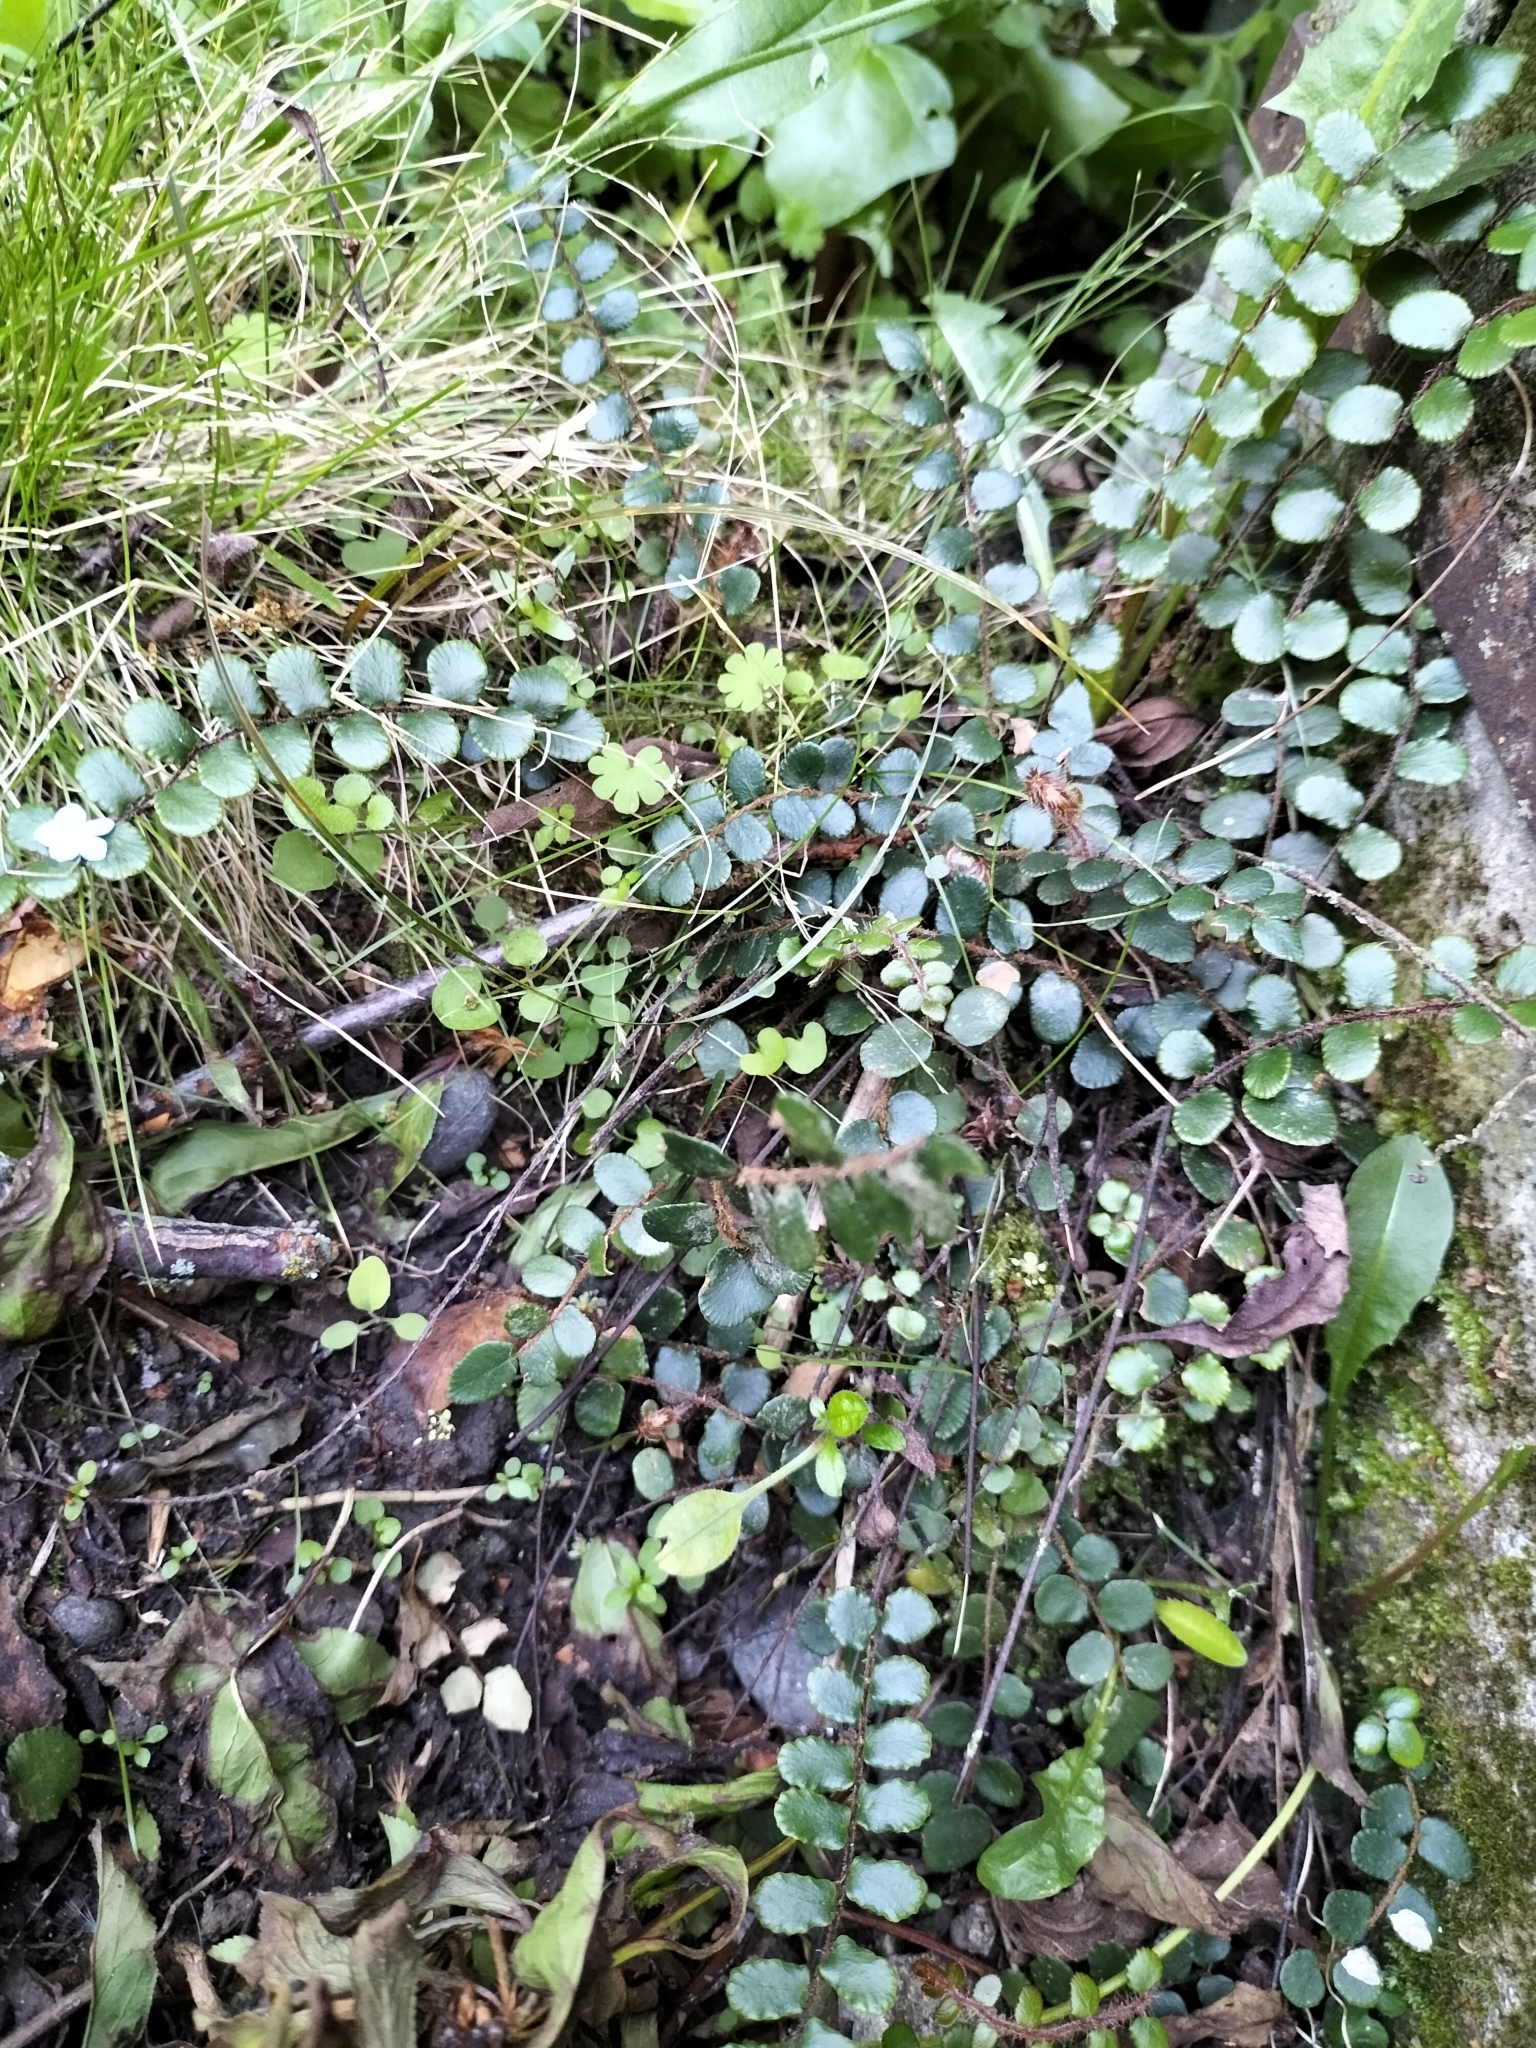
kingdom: Plantae
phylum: Tracheophyta
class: Polypodiopsida
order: Polypodiales
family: Pteridaceae
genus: Pellaea
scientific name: Pellaea rotundifolia
